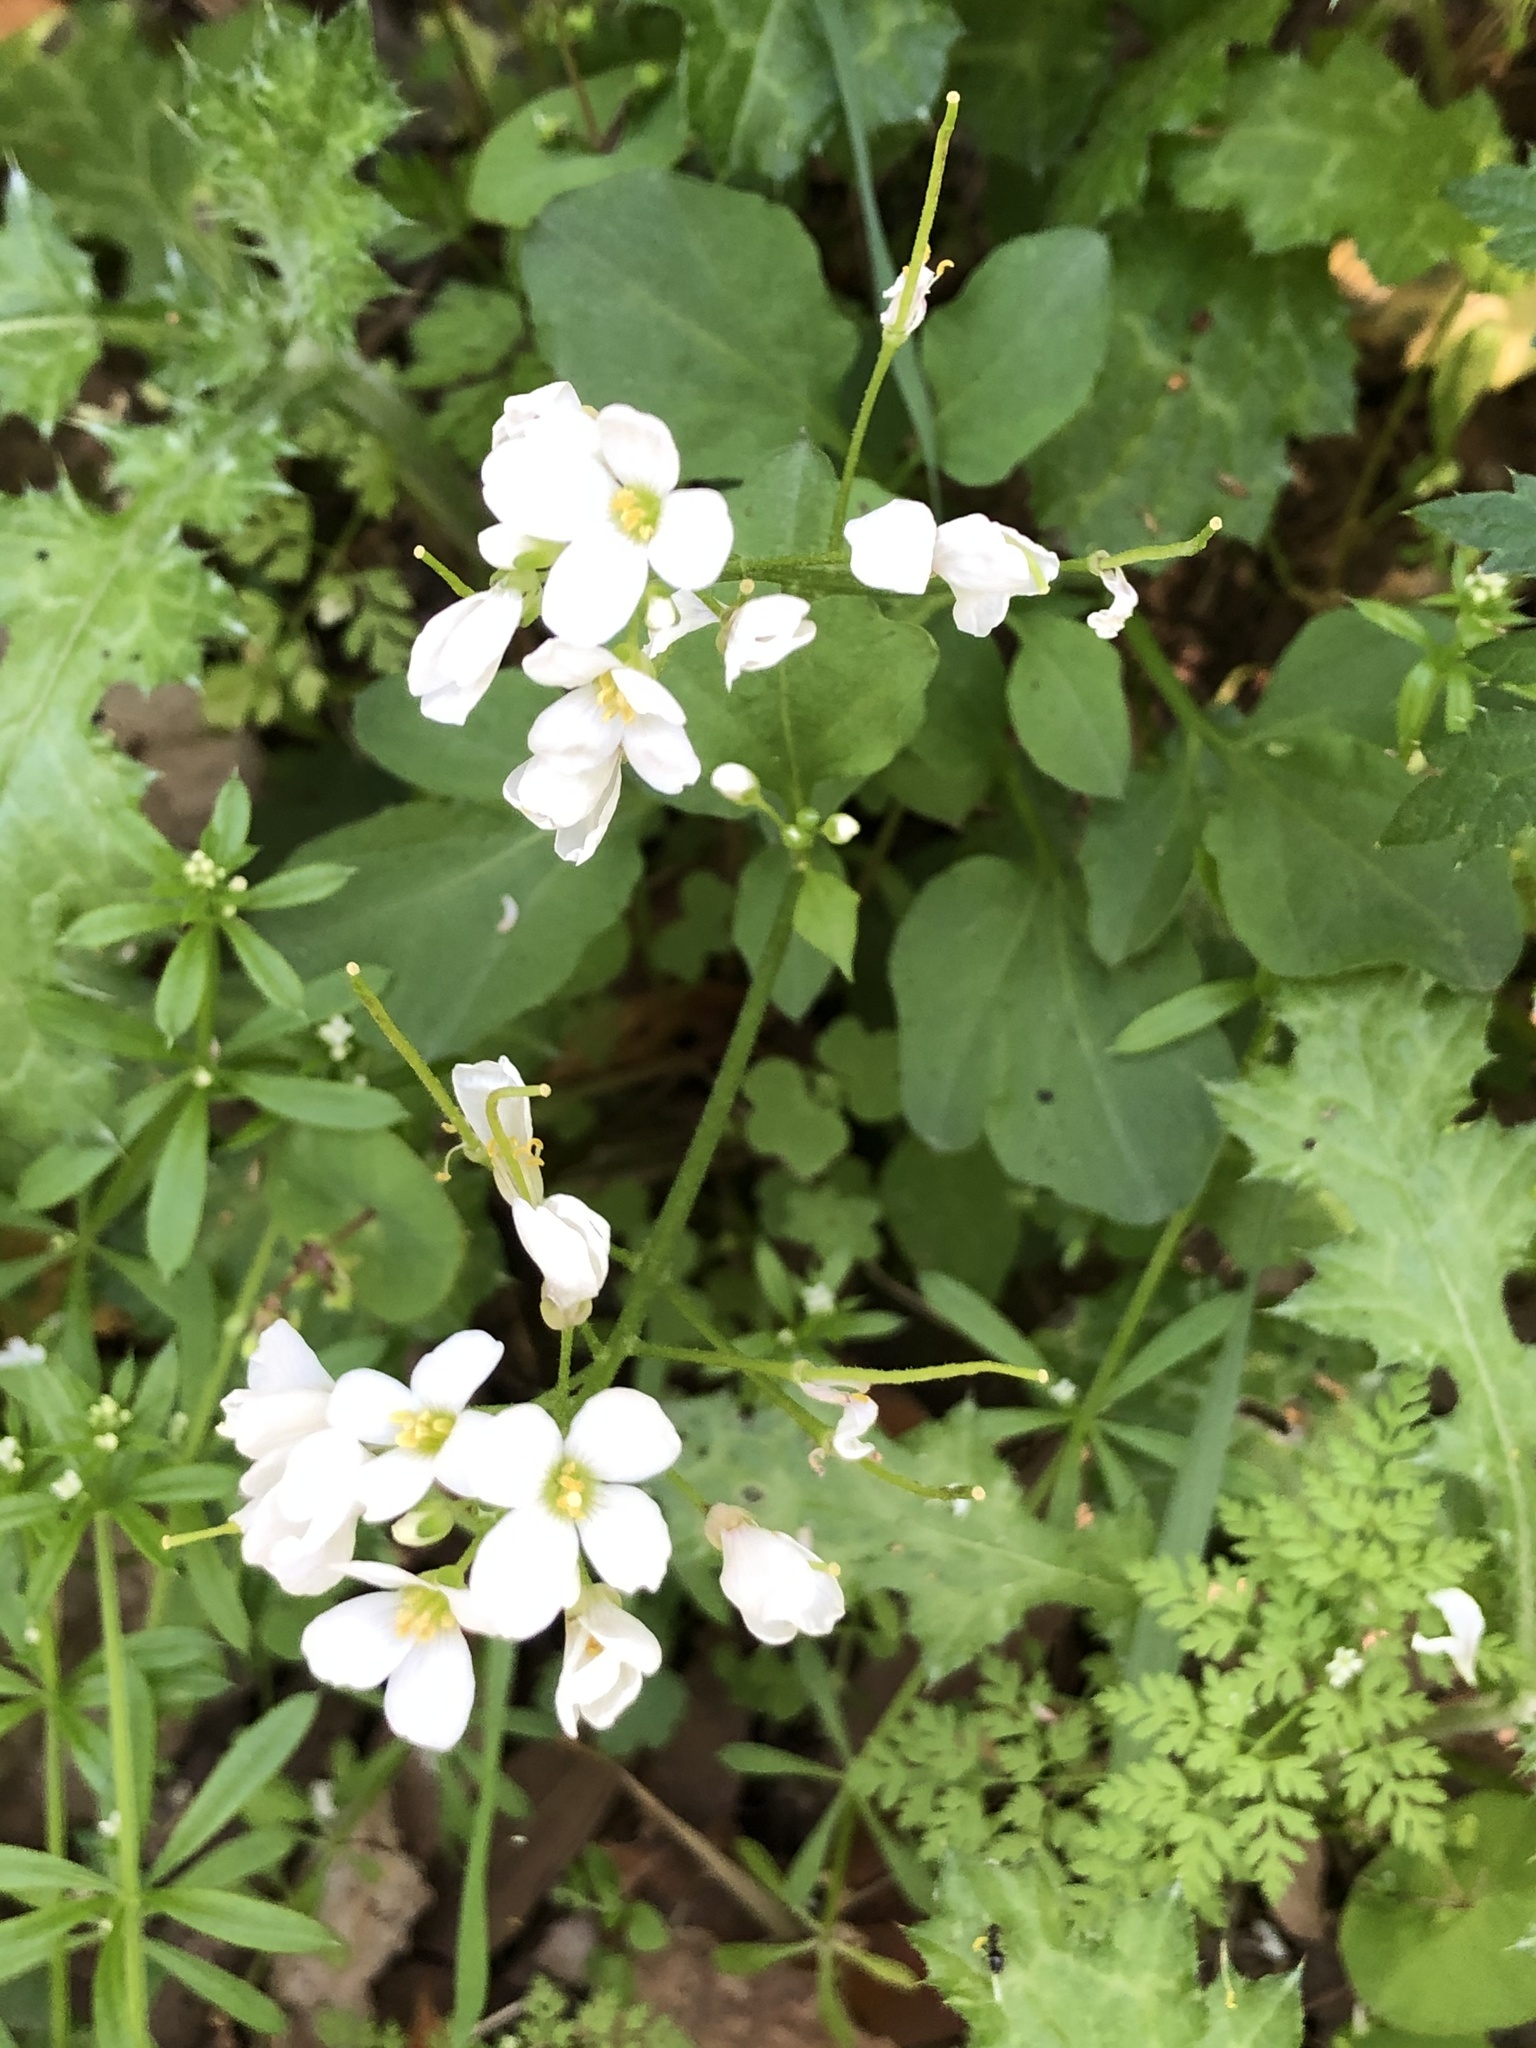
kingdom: Plantae
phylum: Tracheophyta
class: Magnoliopsida
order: Brassicales
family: Brassicaceae
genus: Cardamine
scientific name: Cardamine californica
